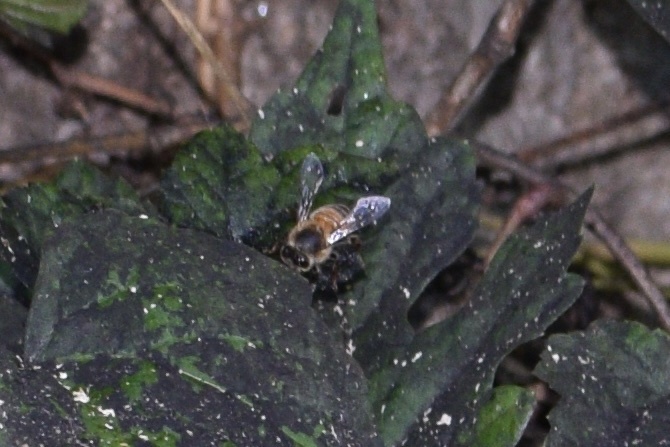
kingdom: Animalia
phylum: Arthropoda
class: Insecta
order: Hymenoptera
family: Apidae
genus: Apis
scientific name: Apis mellifera
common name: Honey bee
